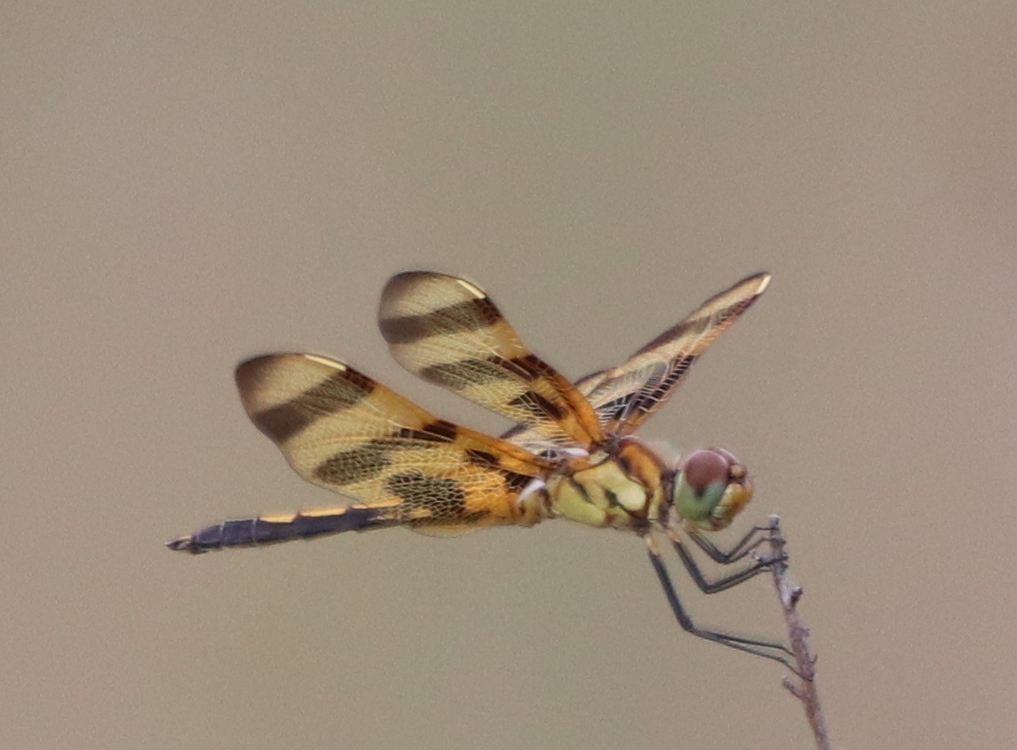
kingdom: Animalia
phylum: Arthropoda
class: Insecta
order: Odonata
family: Libellulidae
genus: Celithemis
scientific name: Celithemis eponina
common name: Halloween pennant
